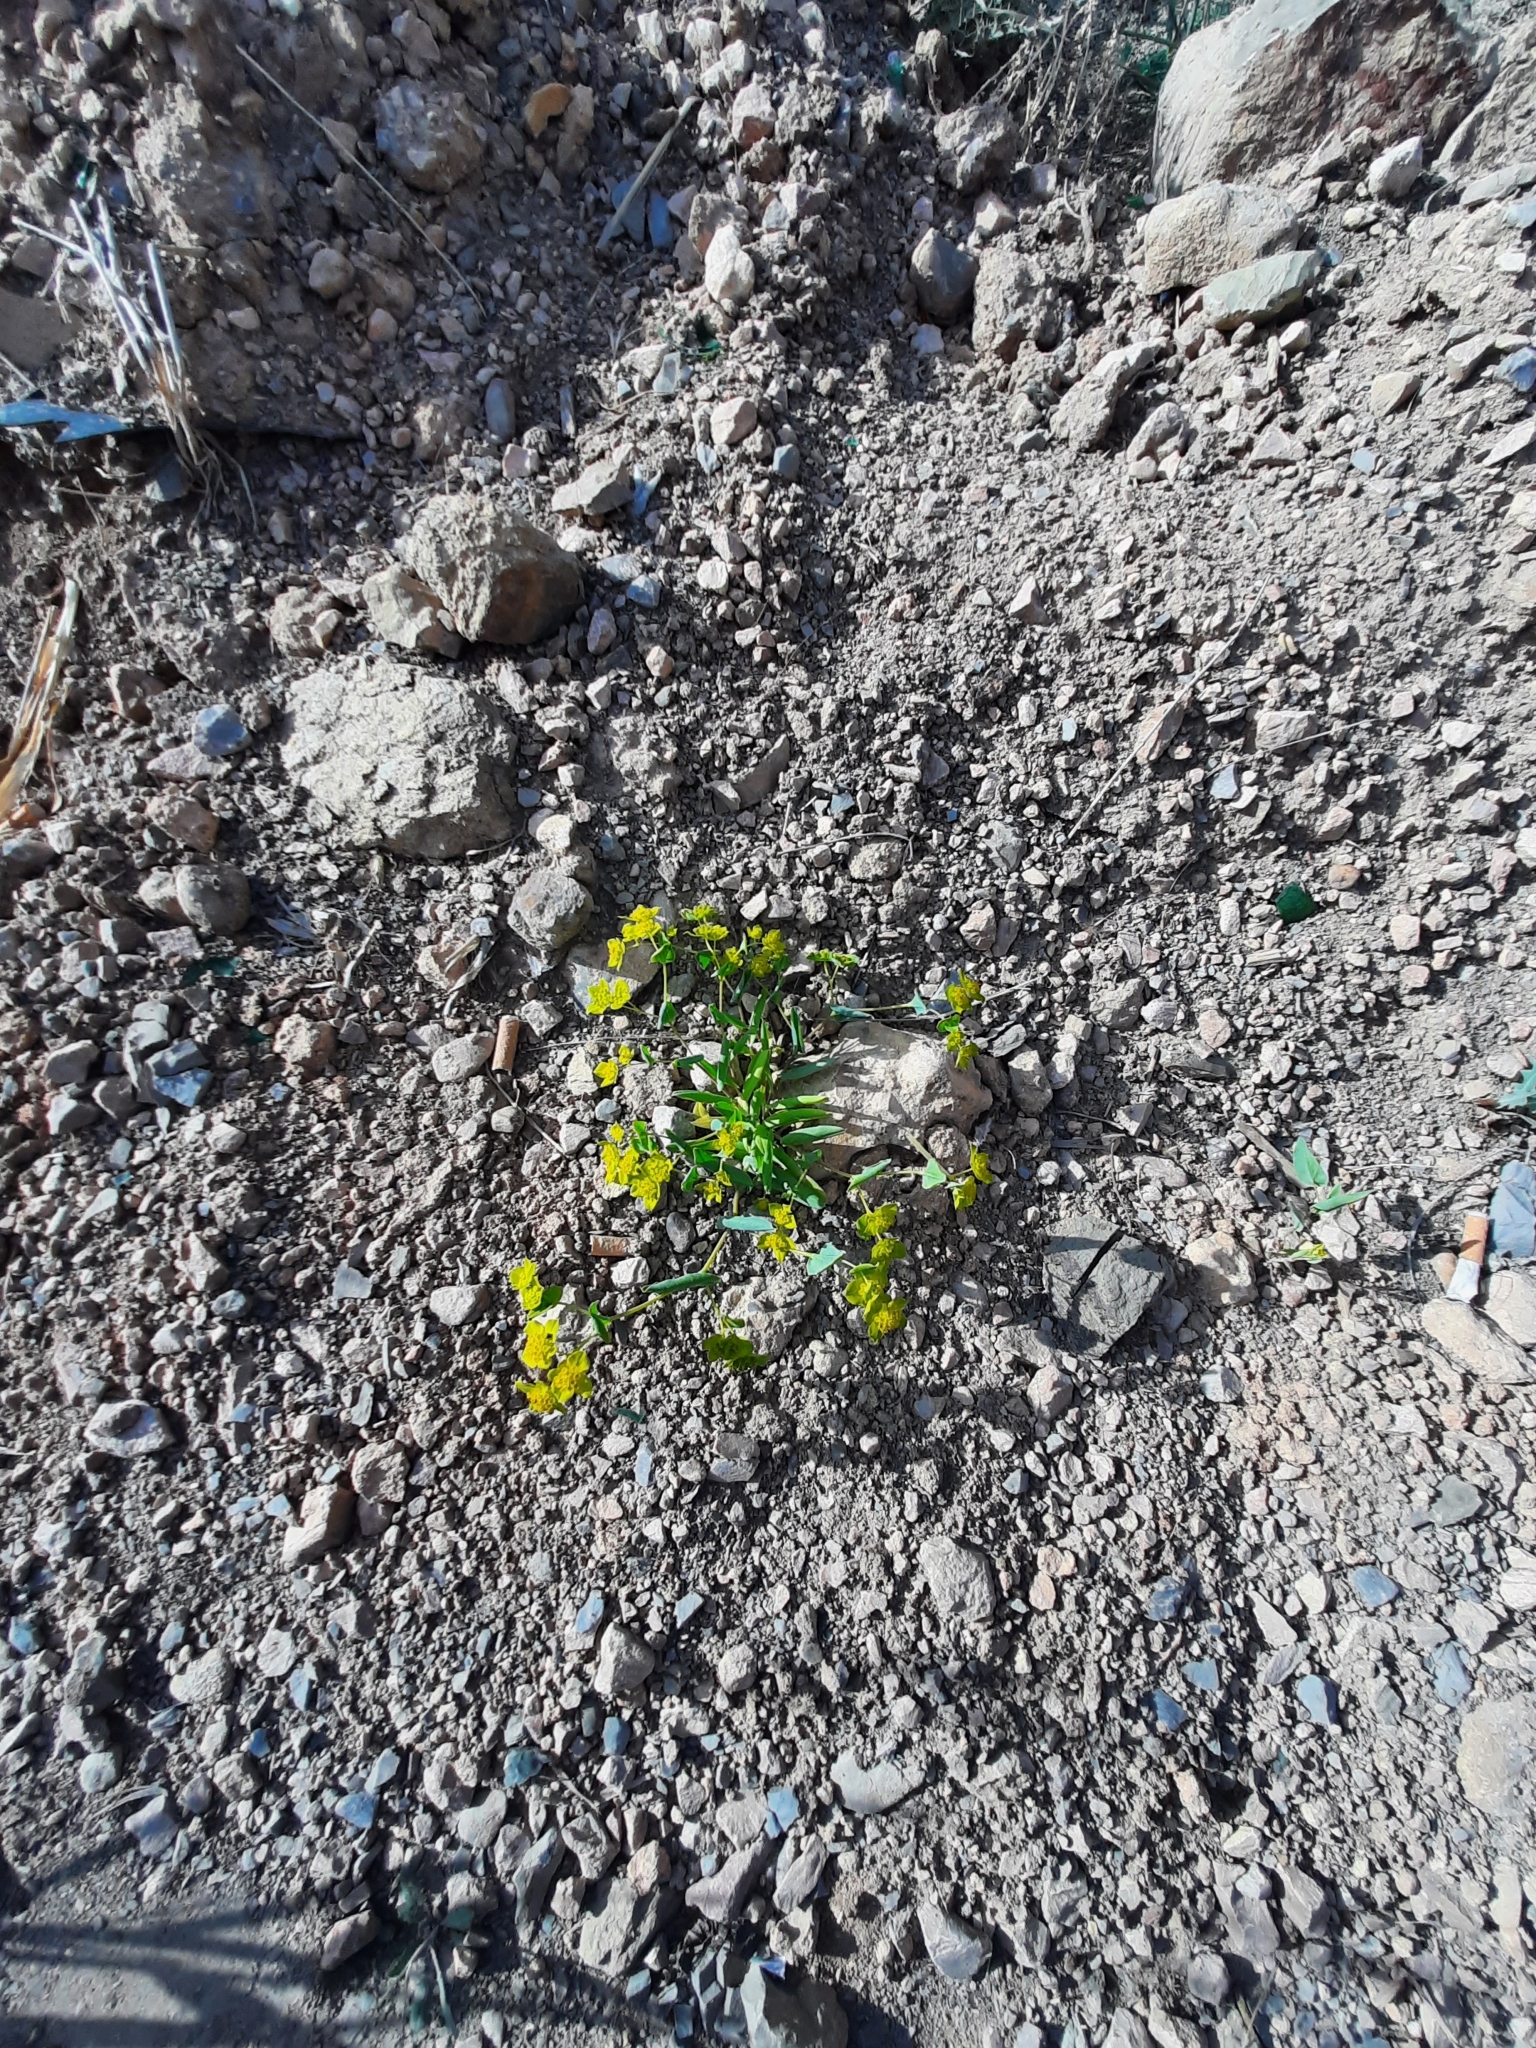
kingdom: Plantae
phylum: Tracheophyta
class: Magnoliopsida
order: Apiales
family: Apiaceae
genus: Bupleurum
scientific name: Bupleurum subovatum
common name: False thorow-wax
